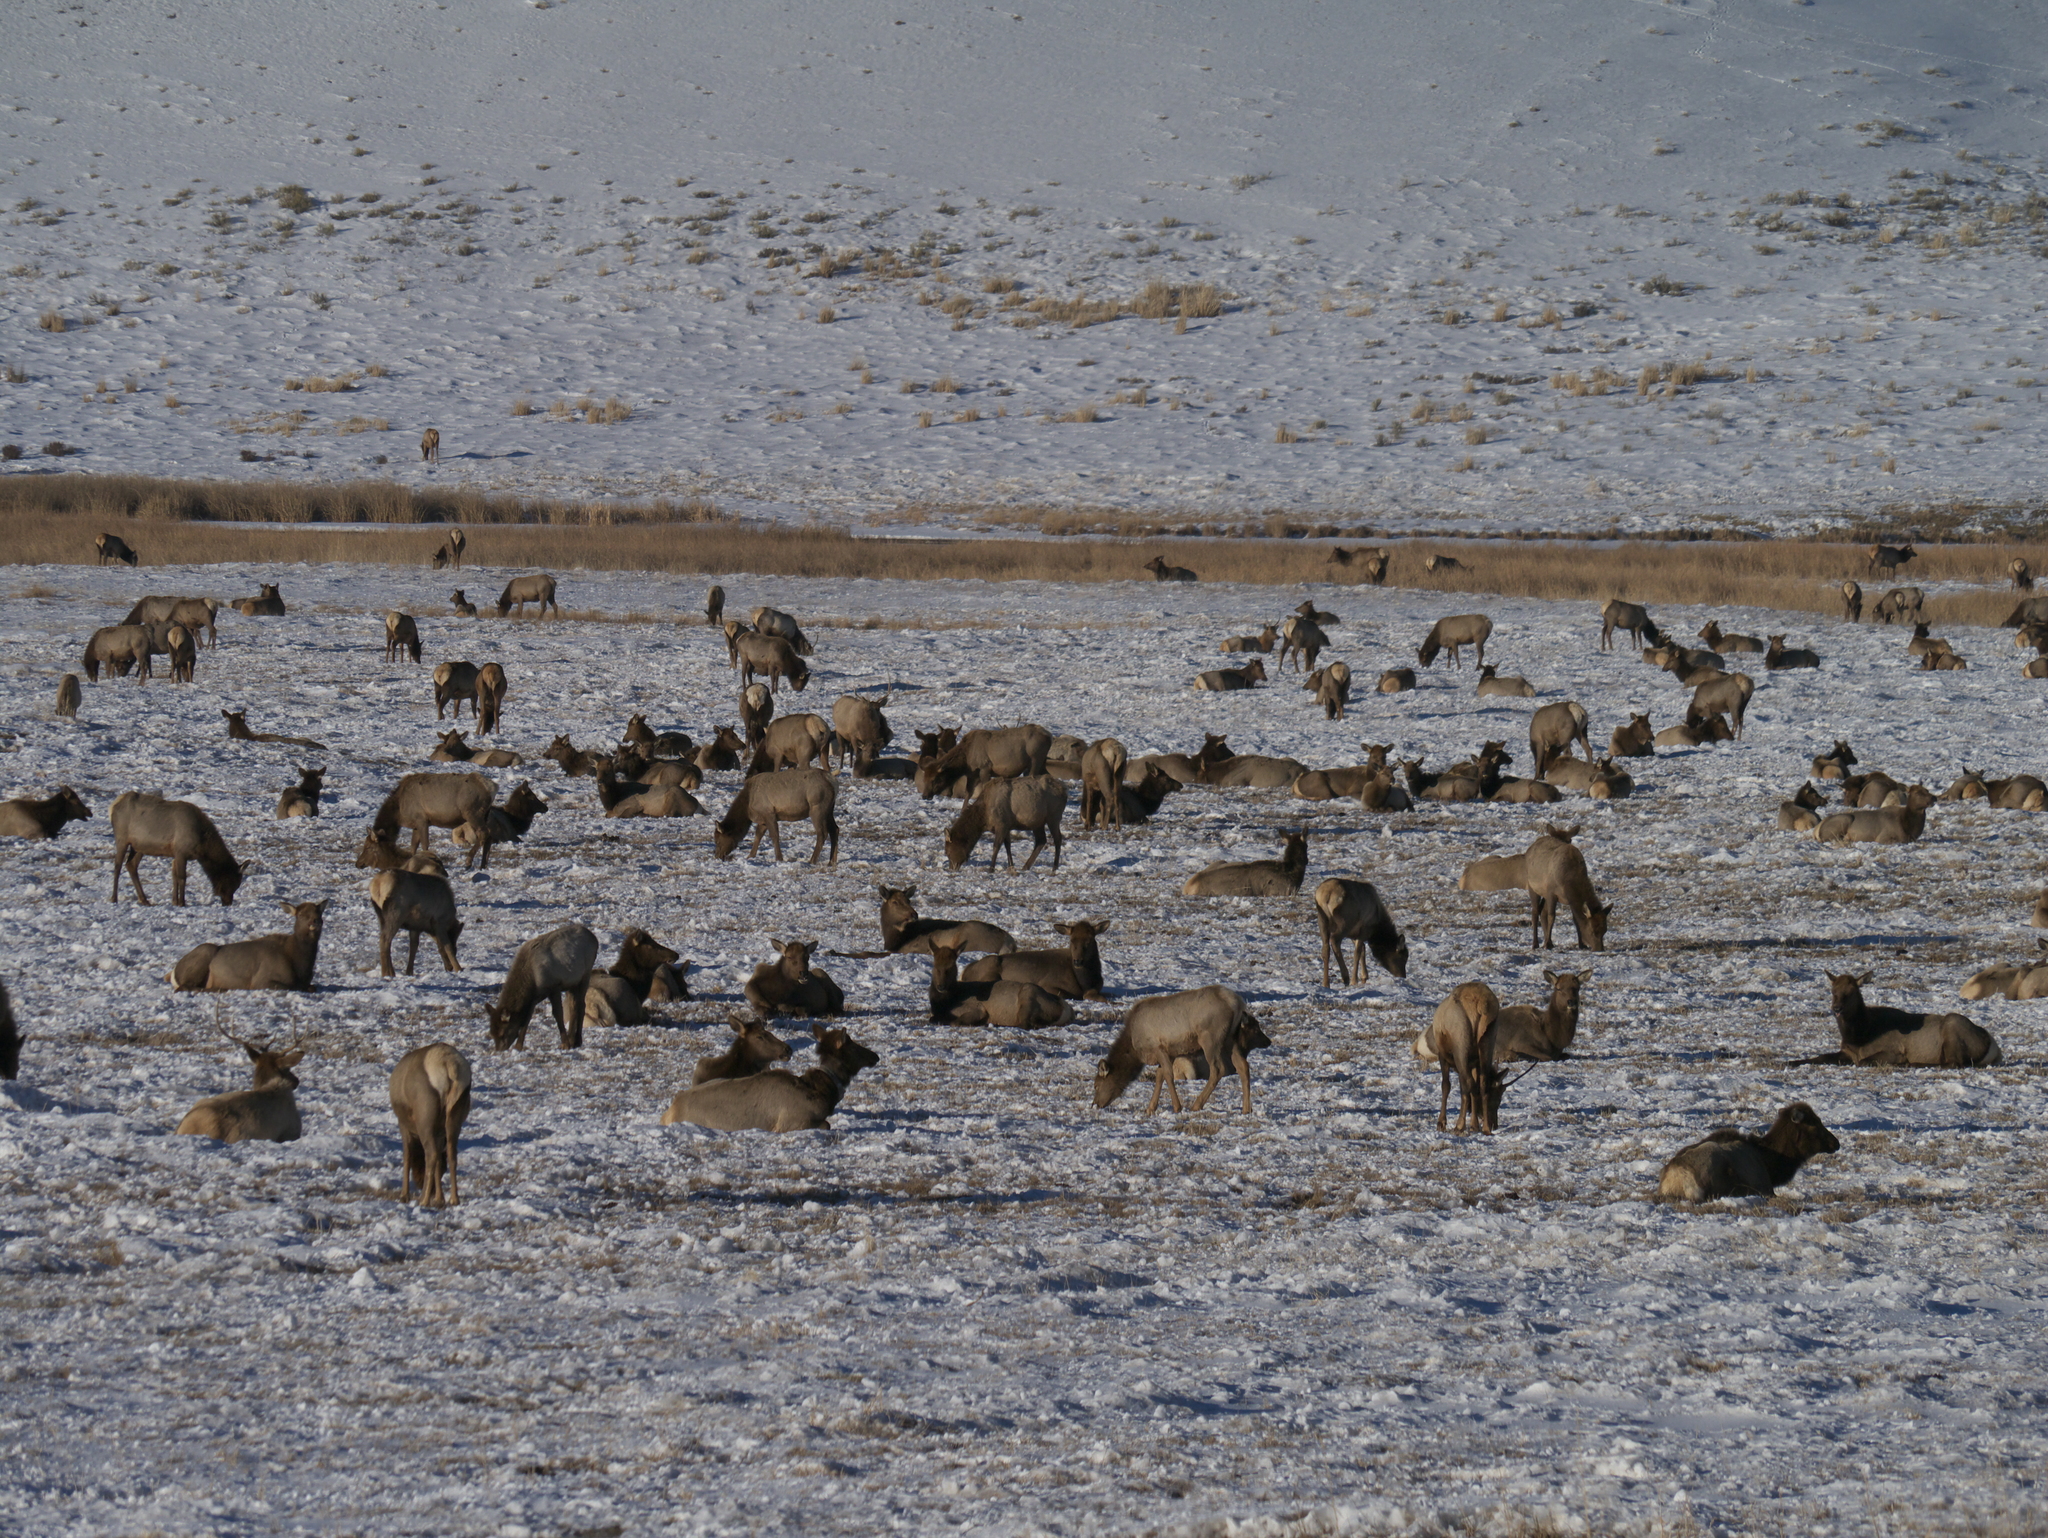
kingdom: Animalia
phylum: Chordata
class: Mammalia
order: Artiodactyla
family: Cervidae
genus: Cervus
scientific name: Cervus elaphus
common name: Red deer
